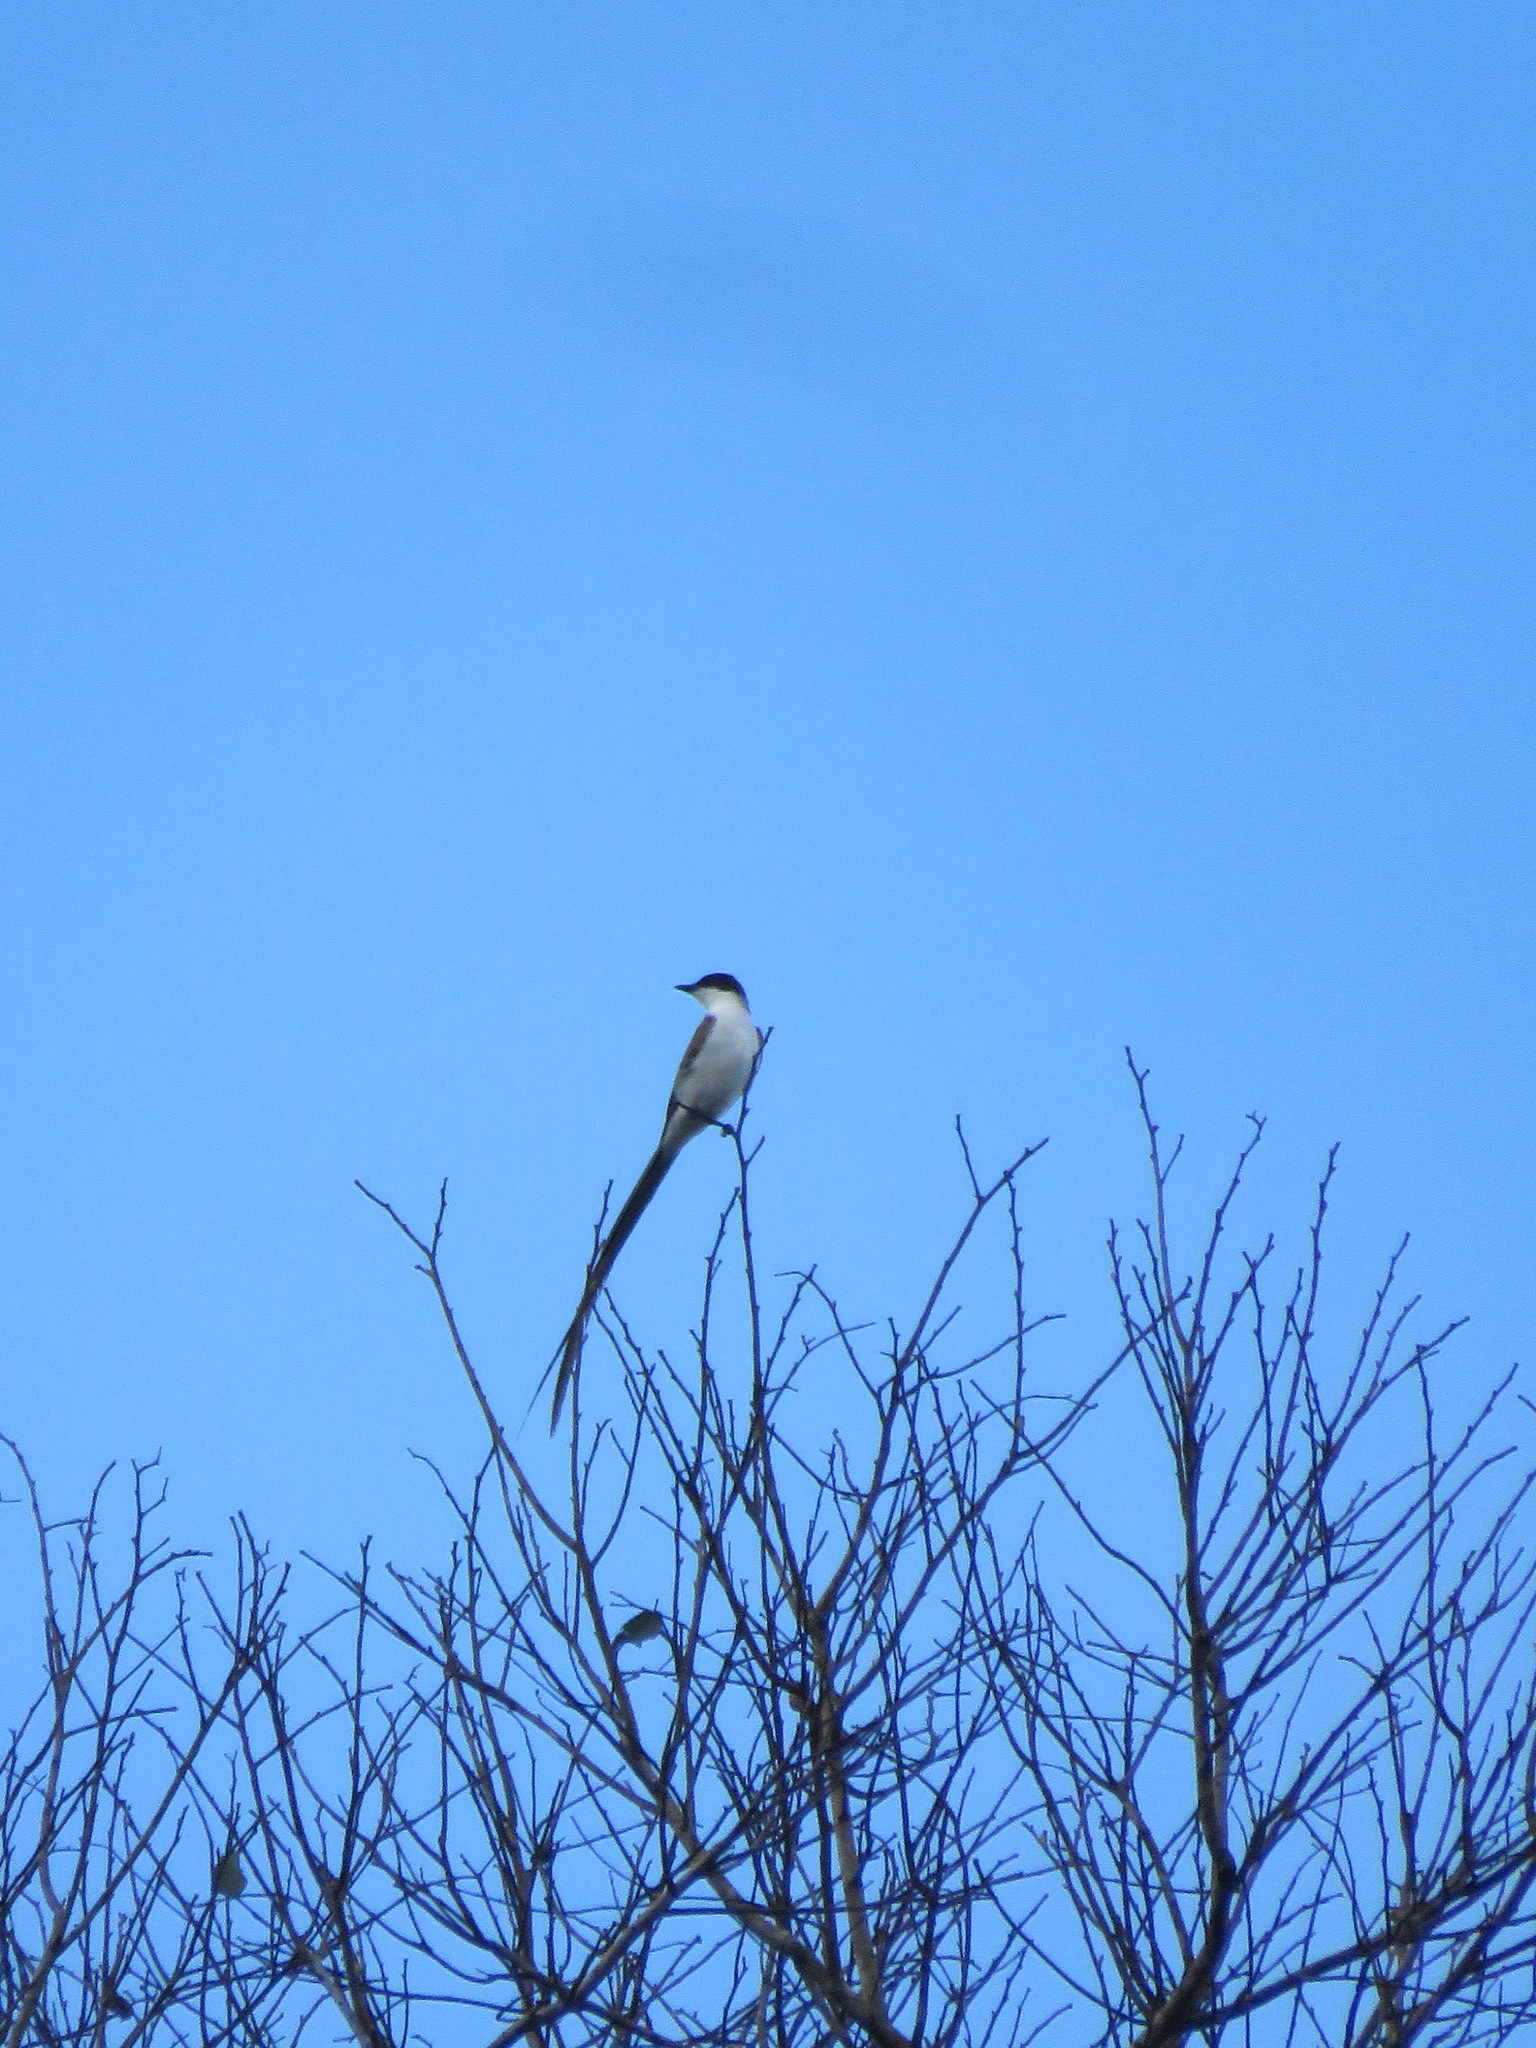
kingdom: Animalia
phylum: Chordata
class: Aves
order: Passeriformes
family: Tyrannidae
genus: Tyrannus
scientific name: Tyrannus savana
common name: Fork-tailed flycatcher
